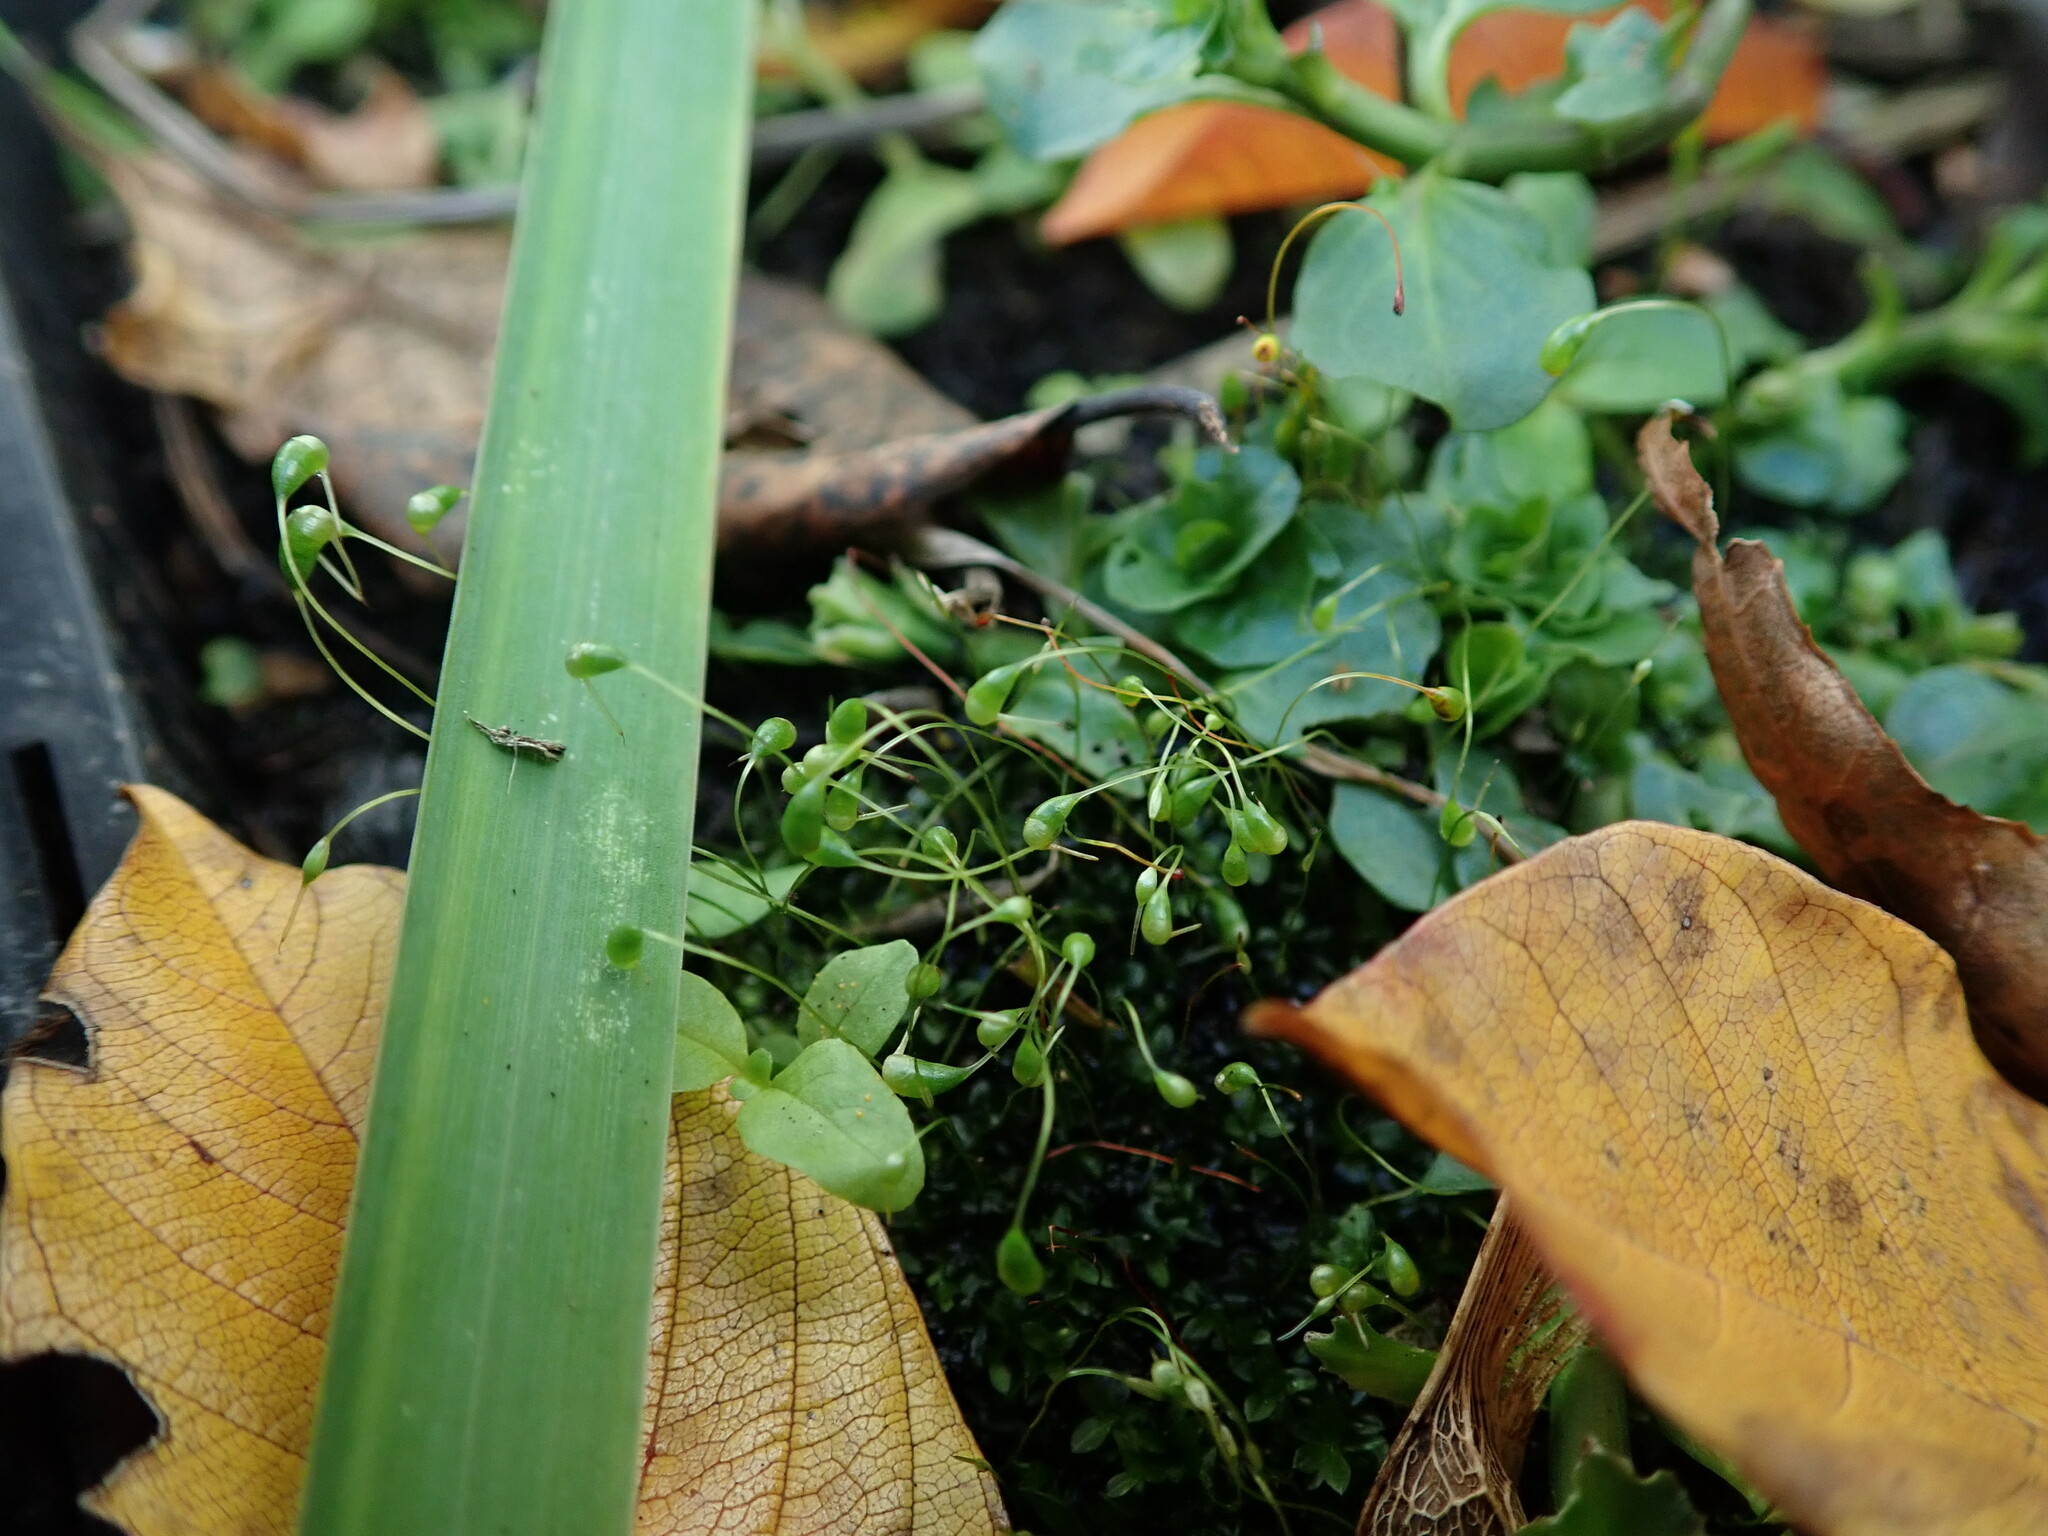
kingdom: Plantae
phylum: Bryophyta
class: Bryopsida
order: Funariales
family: Funariaceae
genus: Funaria
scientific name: Funaria hygrometrica
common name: Common cord moss
